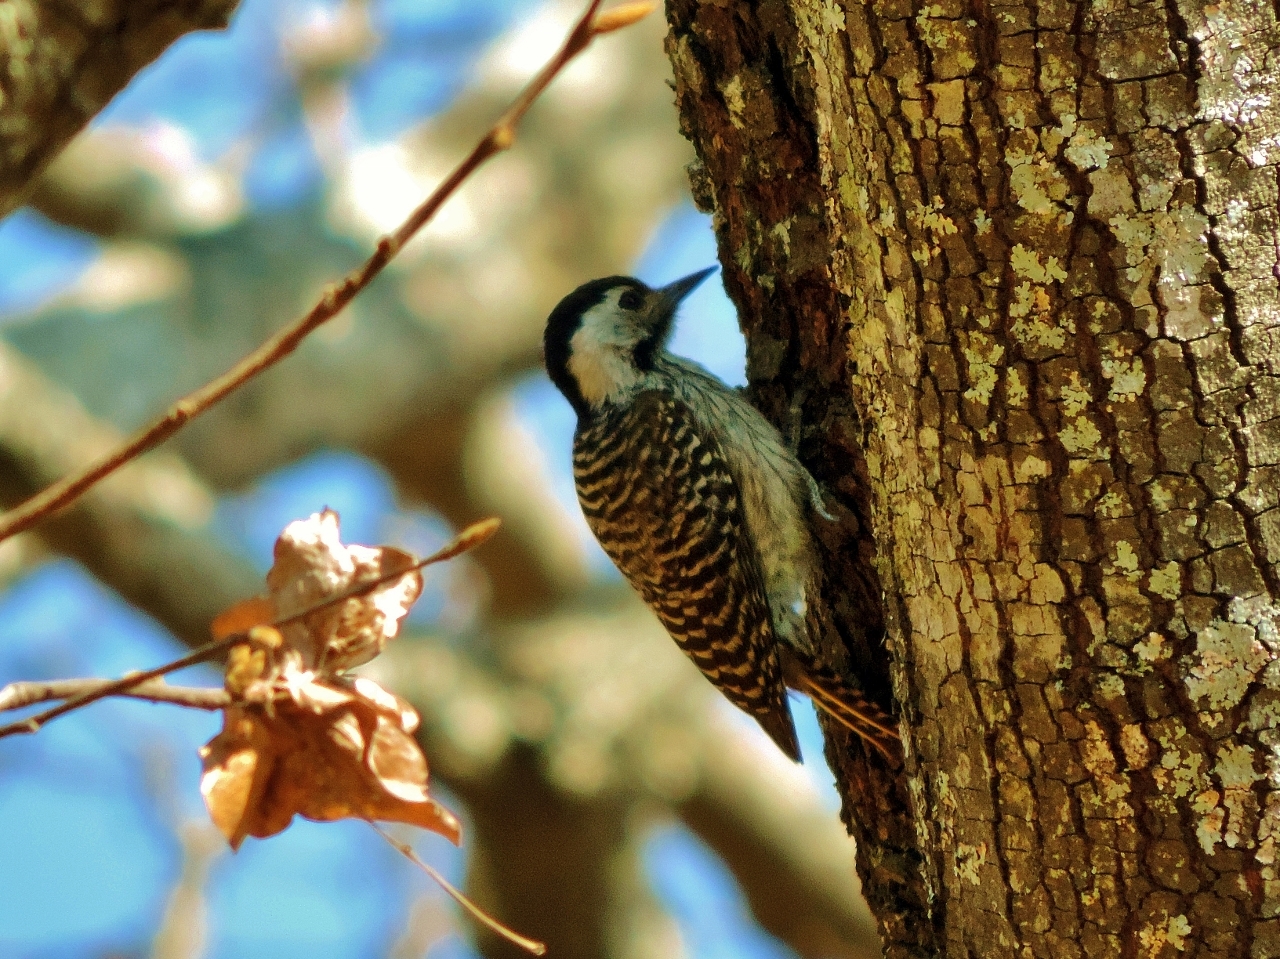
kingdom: Animalia
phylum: Chordata
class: Aves
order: Piciformes
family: Picidae
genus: Dendropicos
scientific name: Dendropicos fuscescens
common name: Cardinal woodpecker
